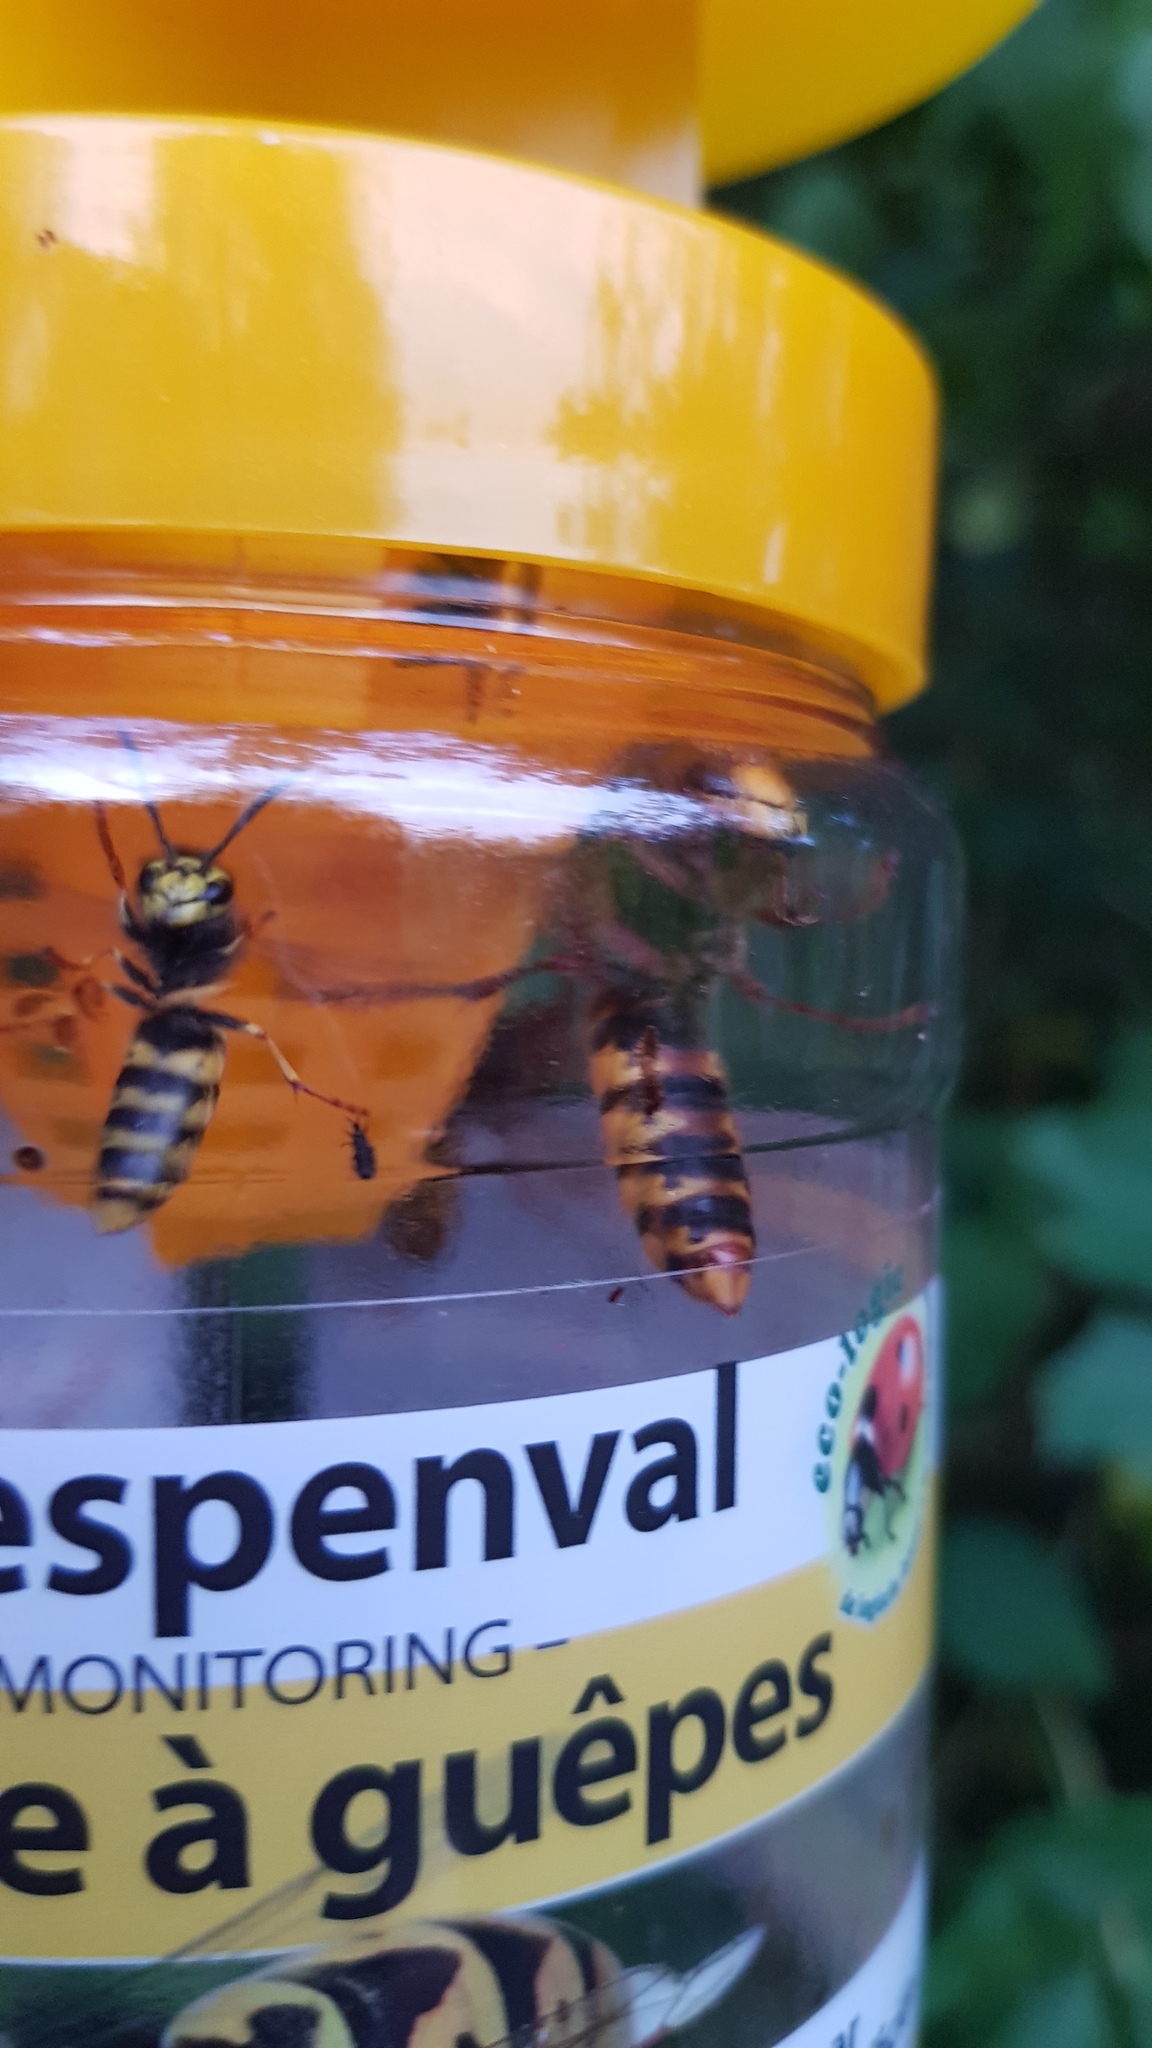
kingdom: Animalia
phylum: Arthropoda
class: Insecta
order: Hymenoptera
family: Vespidae
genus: Vespa
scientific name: Vespa crabro
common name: Hornet
